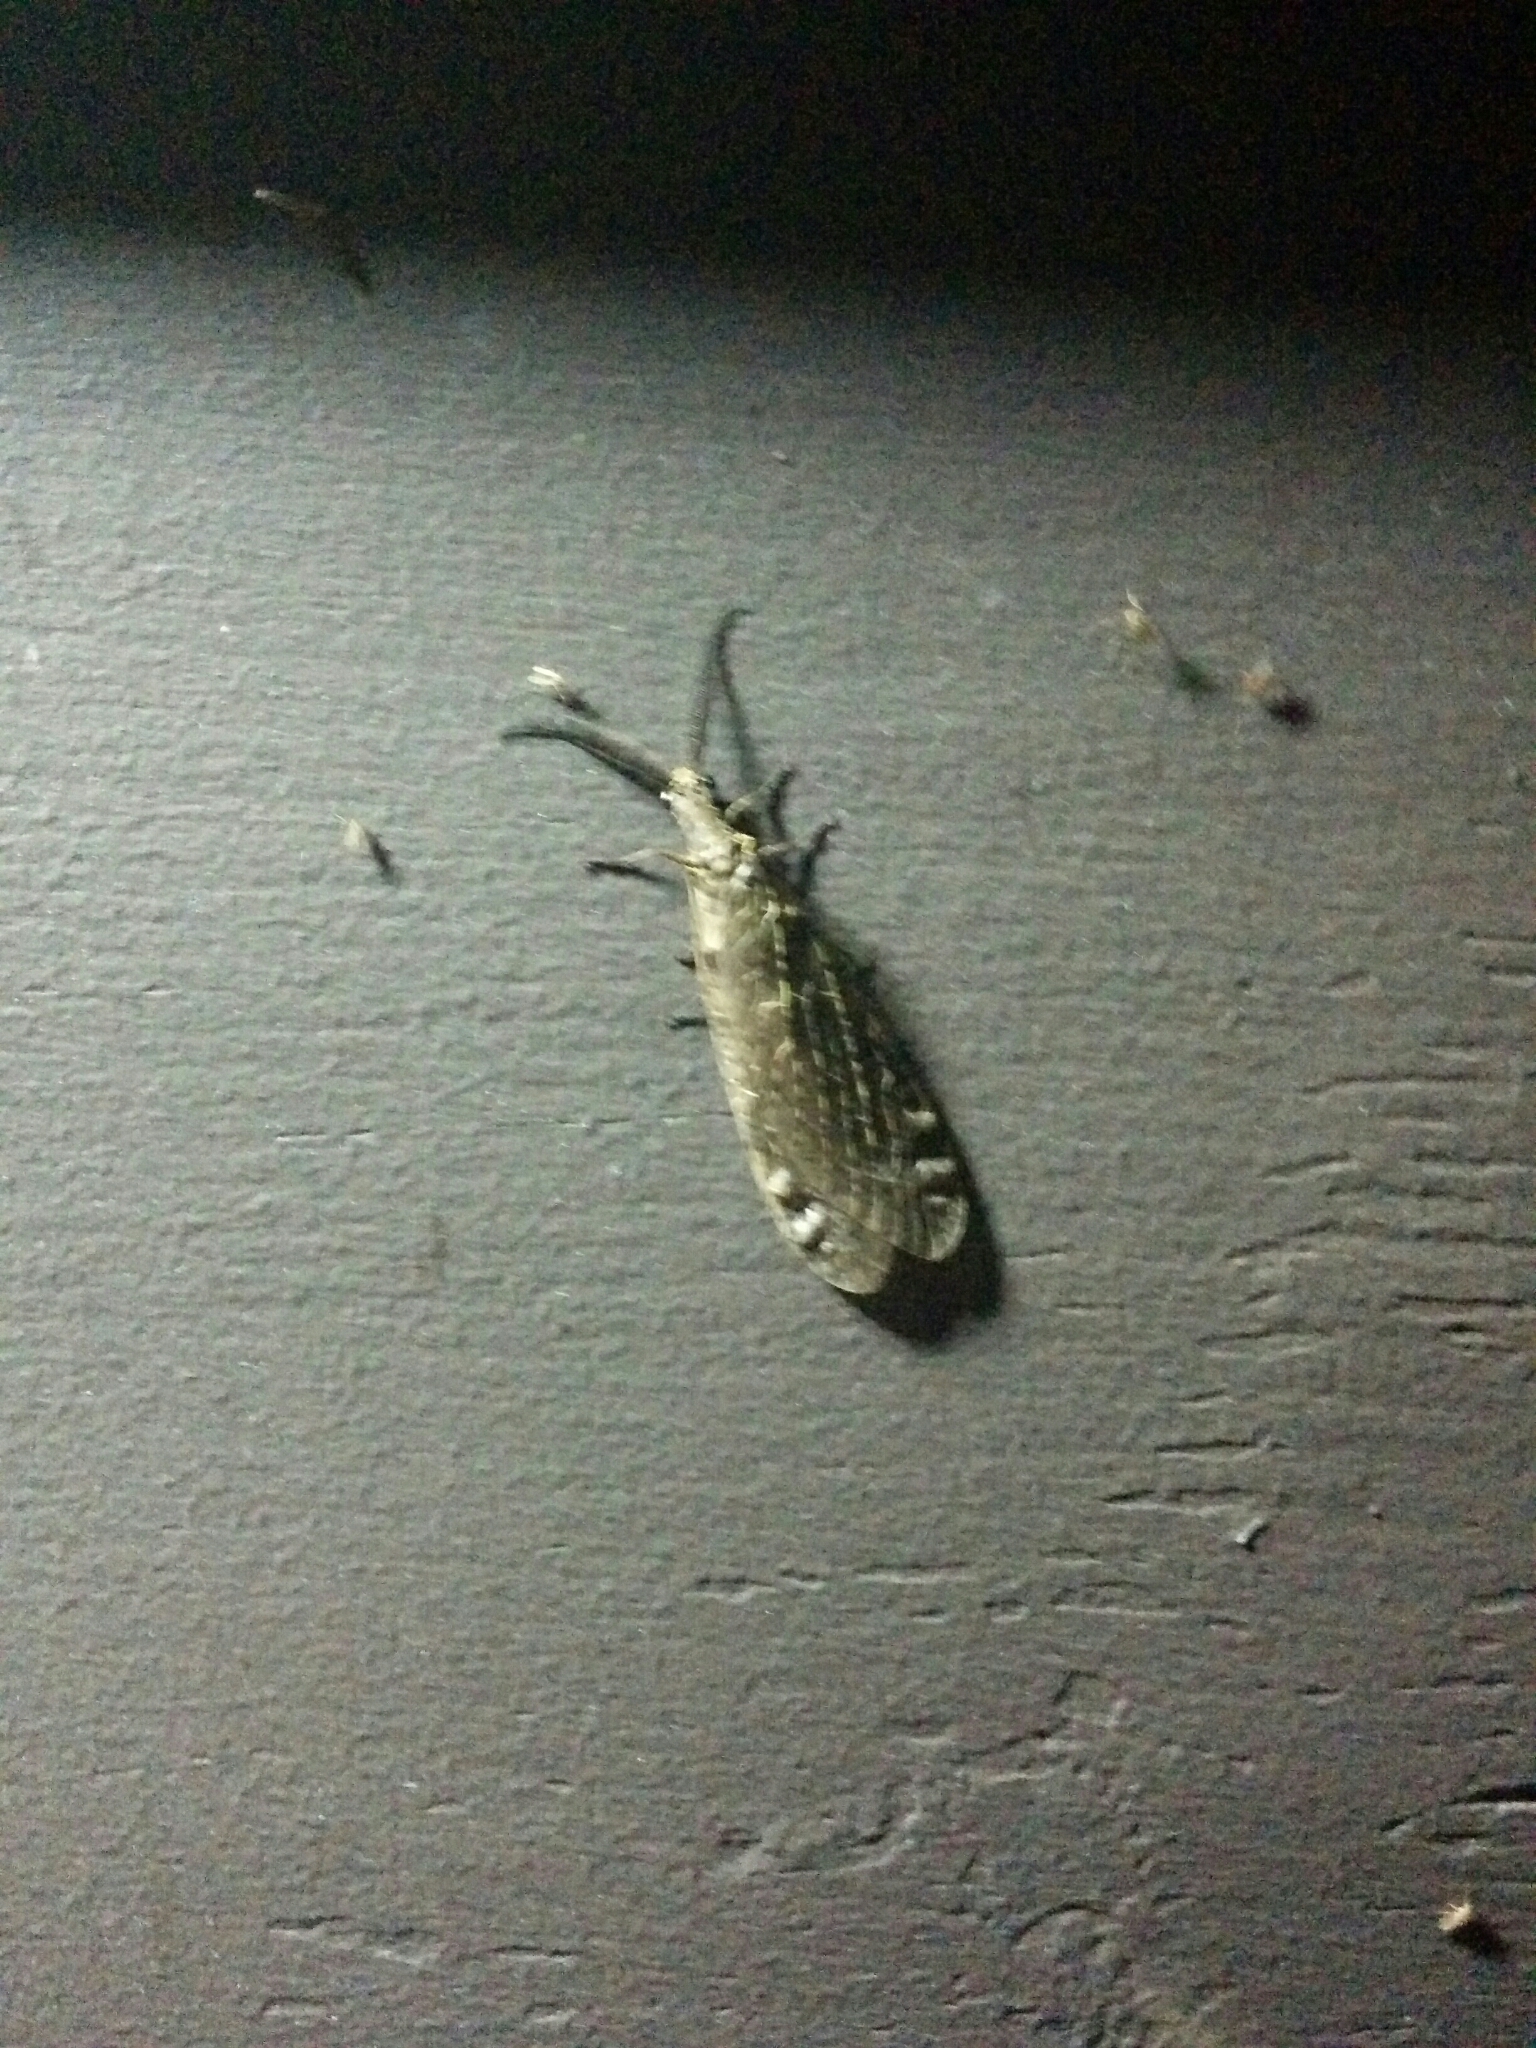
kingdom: Animalia
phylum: Arthropoda
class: Insecta
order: Megaloptera
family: Corydalidae
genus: Chauliodes
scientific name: Chauliodes rastricornis
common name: Spring fishfly
